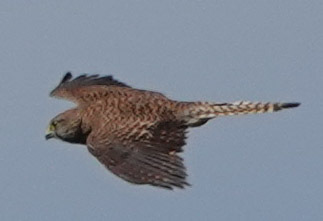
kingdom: Animalia
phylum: Chordata
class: Aves
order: Falconiformes
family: Falconidae
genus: Falco
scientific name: Falco tinnunculus
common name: Common kestrel
